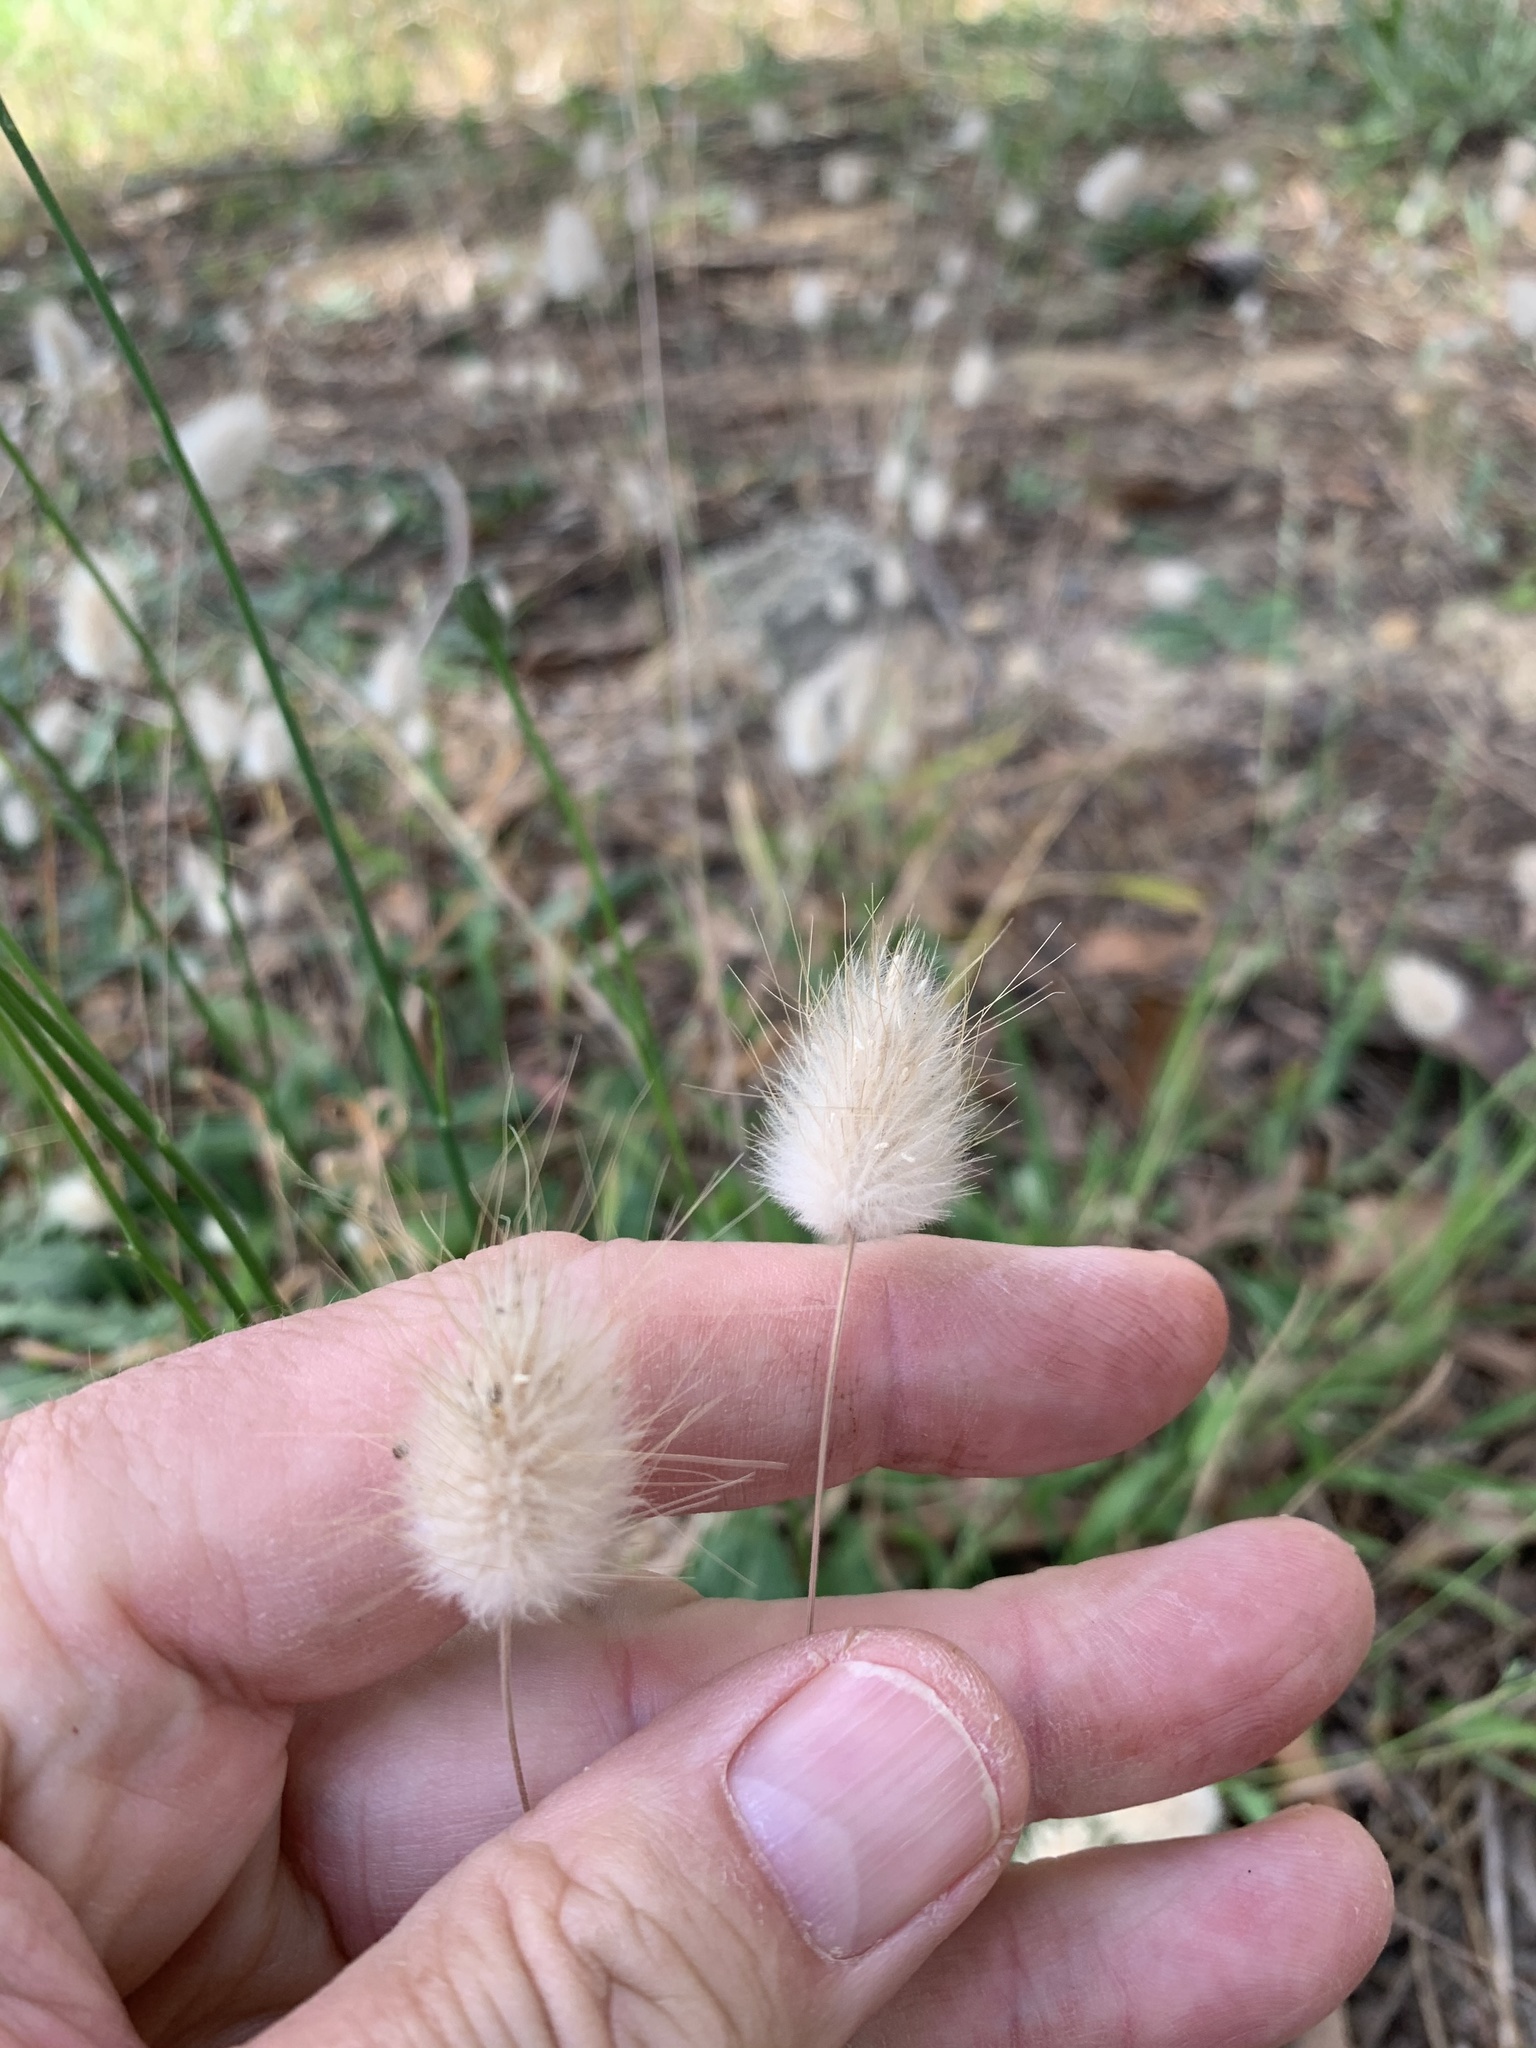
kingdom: Plantae
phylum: Tracheophyta
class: Liliopsida
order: Poales
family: Poaceae
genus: Lagurus
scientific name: Lagurus ovatus
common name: Hare's-tail
